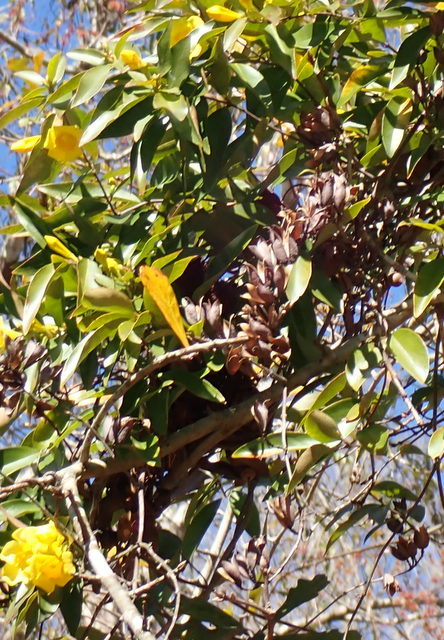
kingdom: Plantae
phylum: Tracheophyta
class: Magnoliopsida
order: Gentianales
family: Gelsemiaceae
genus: Gelsemium
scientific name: Gelsemium sempervirens
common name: Carolina-jasmine
